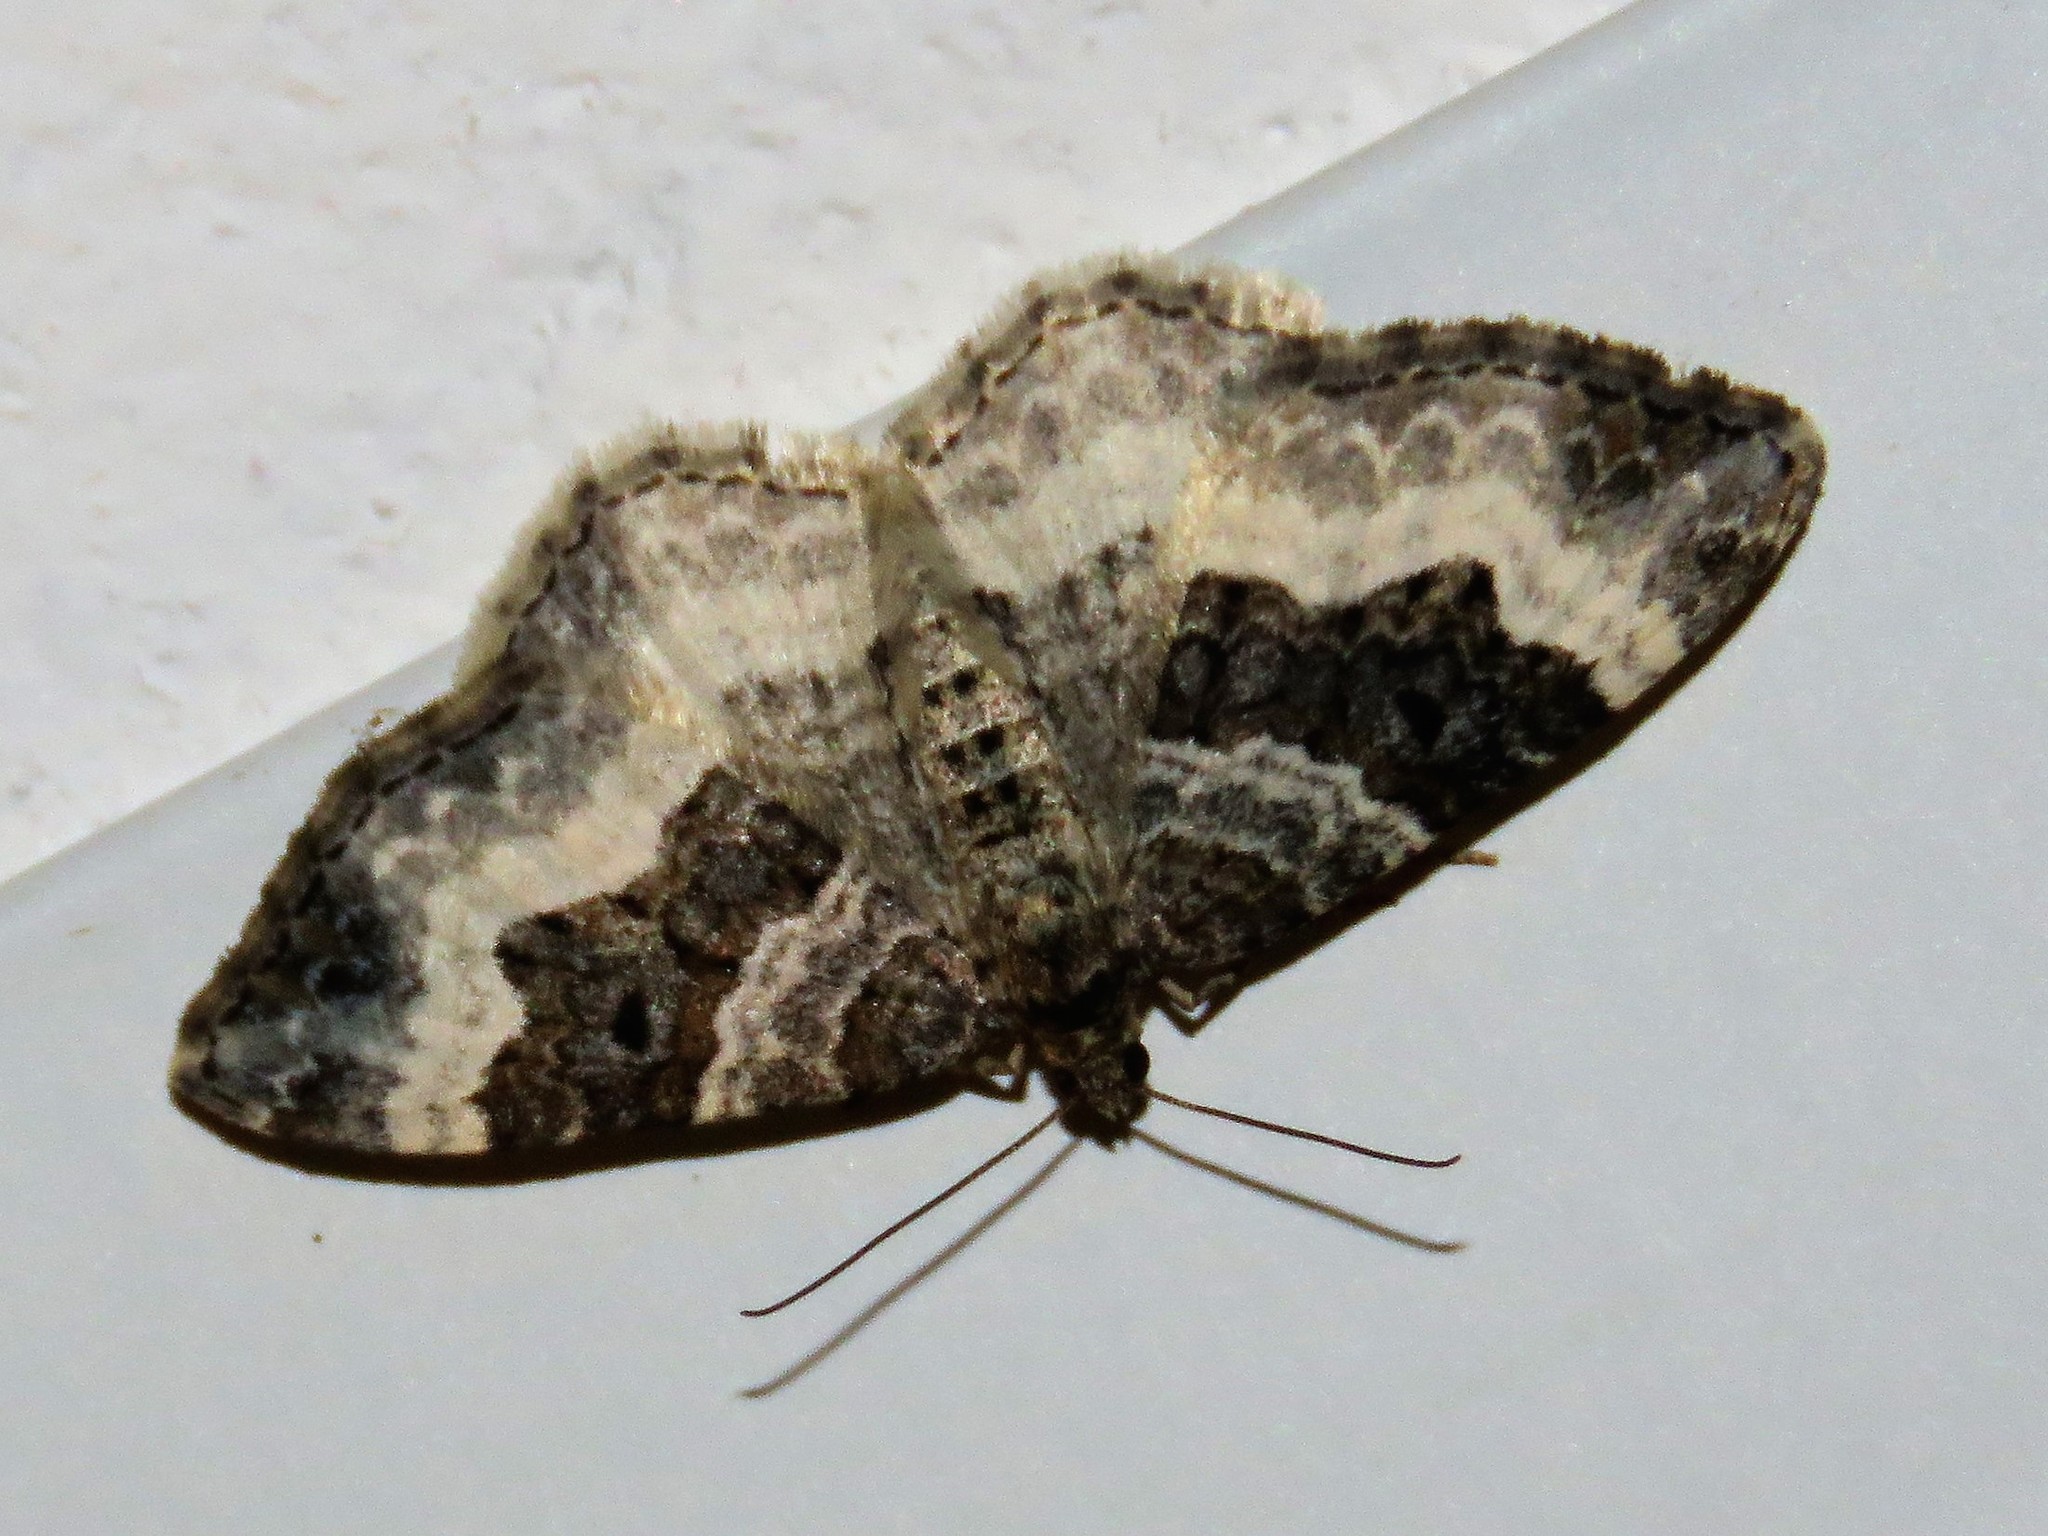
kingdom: Animalia
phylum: Arthropoda
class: Insecta
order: Lepidoptera
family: Geometridae
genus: Epirrhoe
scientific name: Epirrhoe alternata
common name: Common carpet
